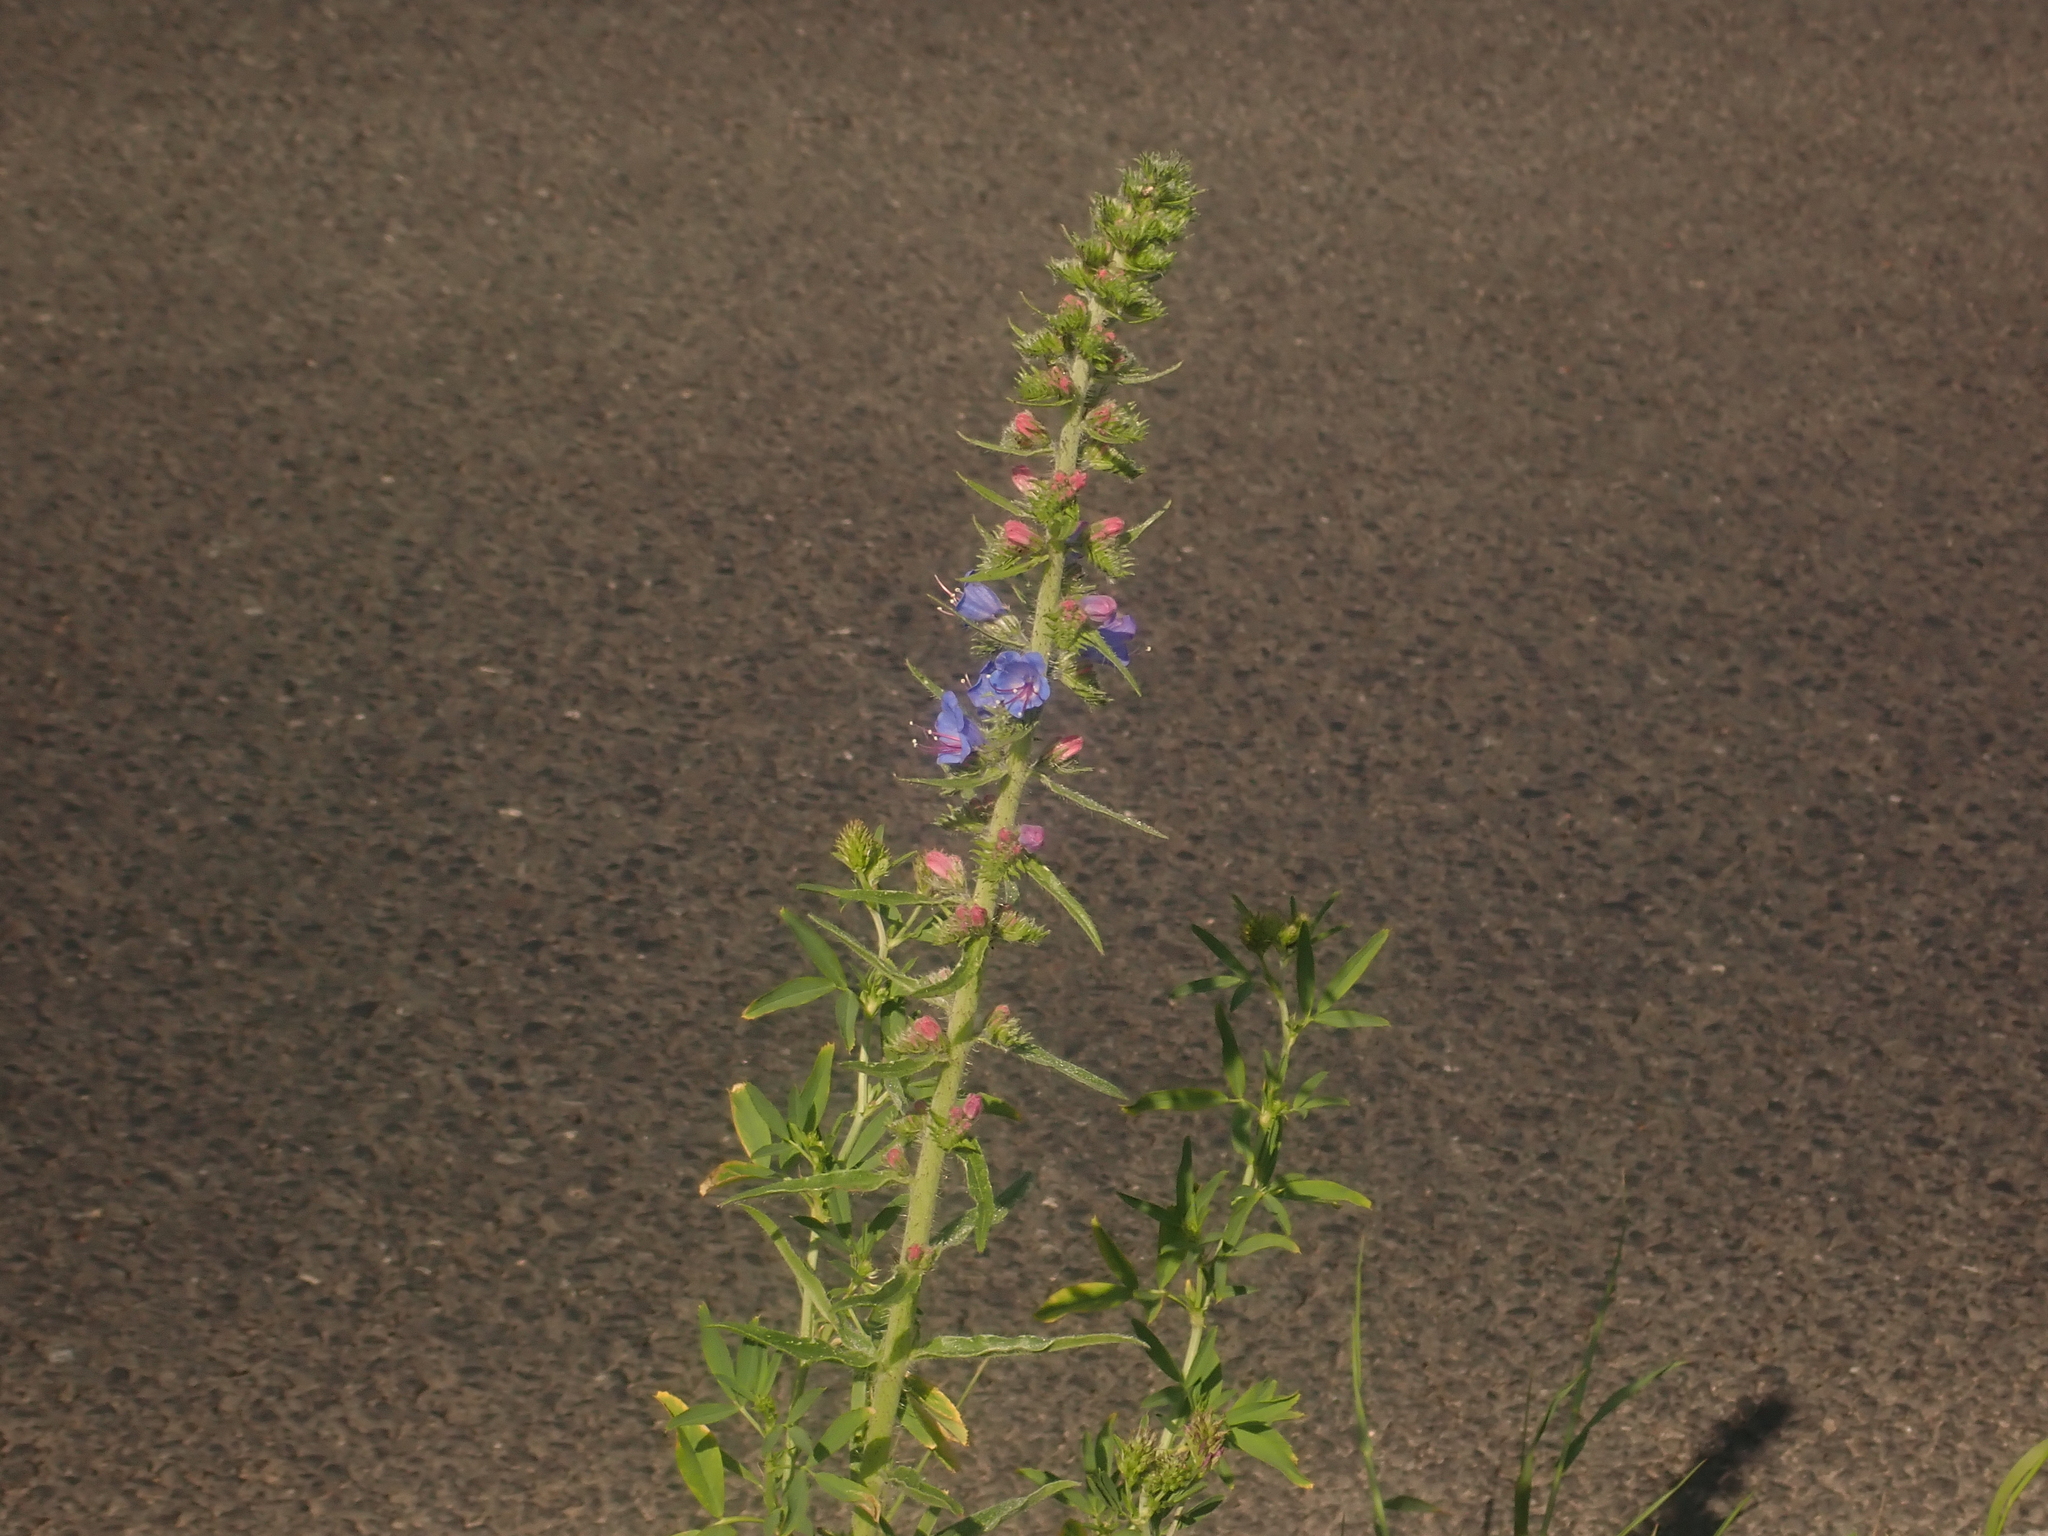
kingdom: Plantae
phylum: Tracheophyta
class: Magnoliopsida
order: Boraginales
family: Boraginaceae
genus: Echium
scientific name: Echium vulgare
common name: Common viper's bugloss
